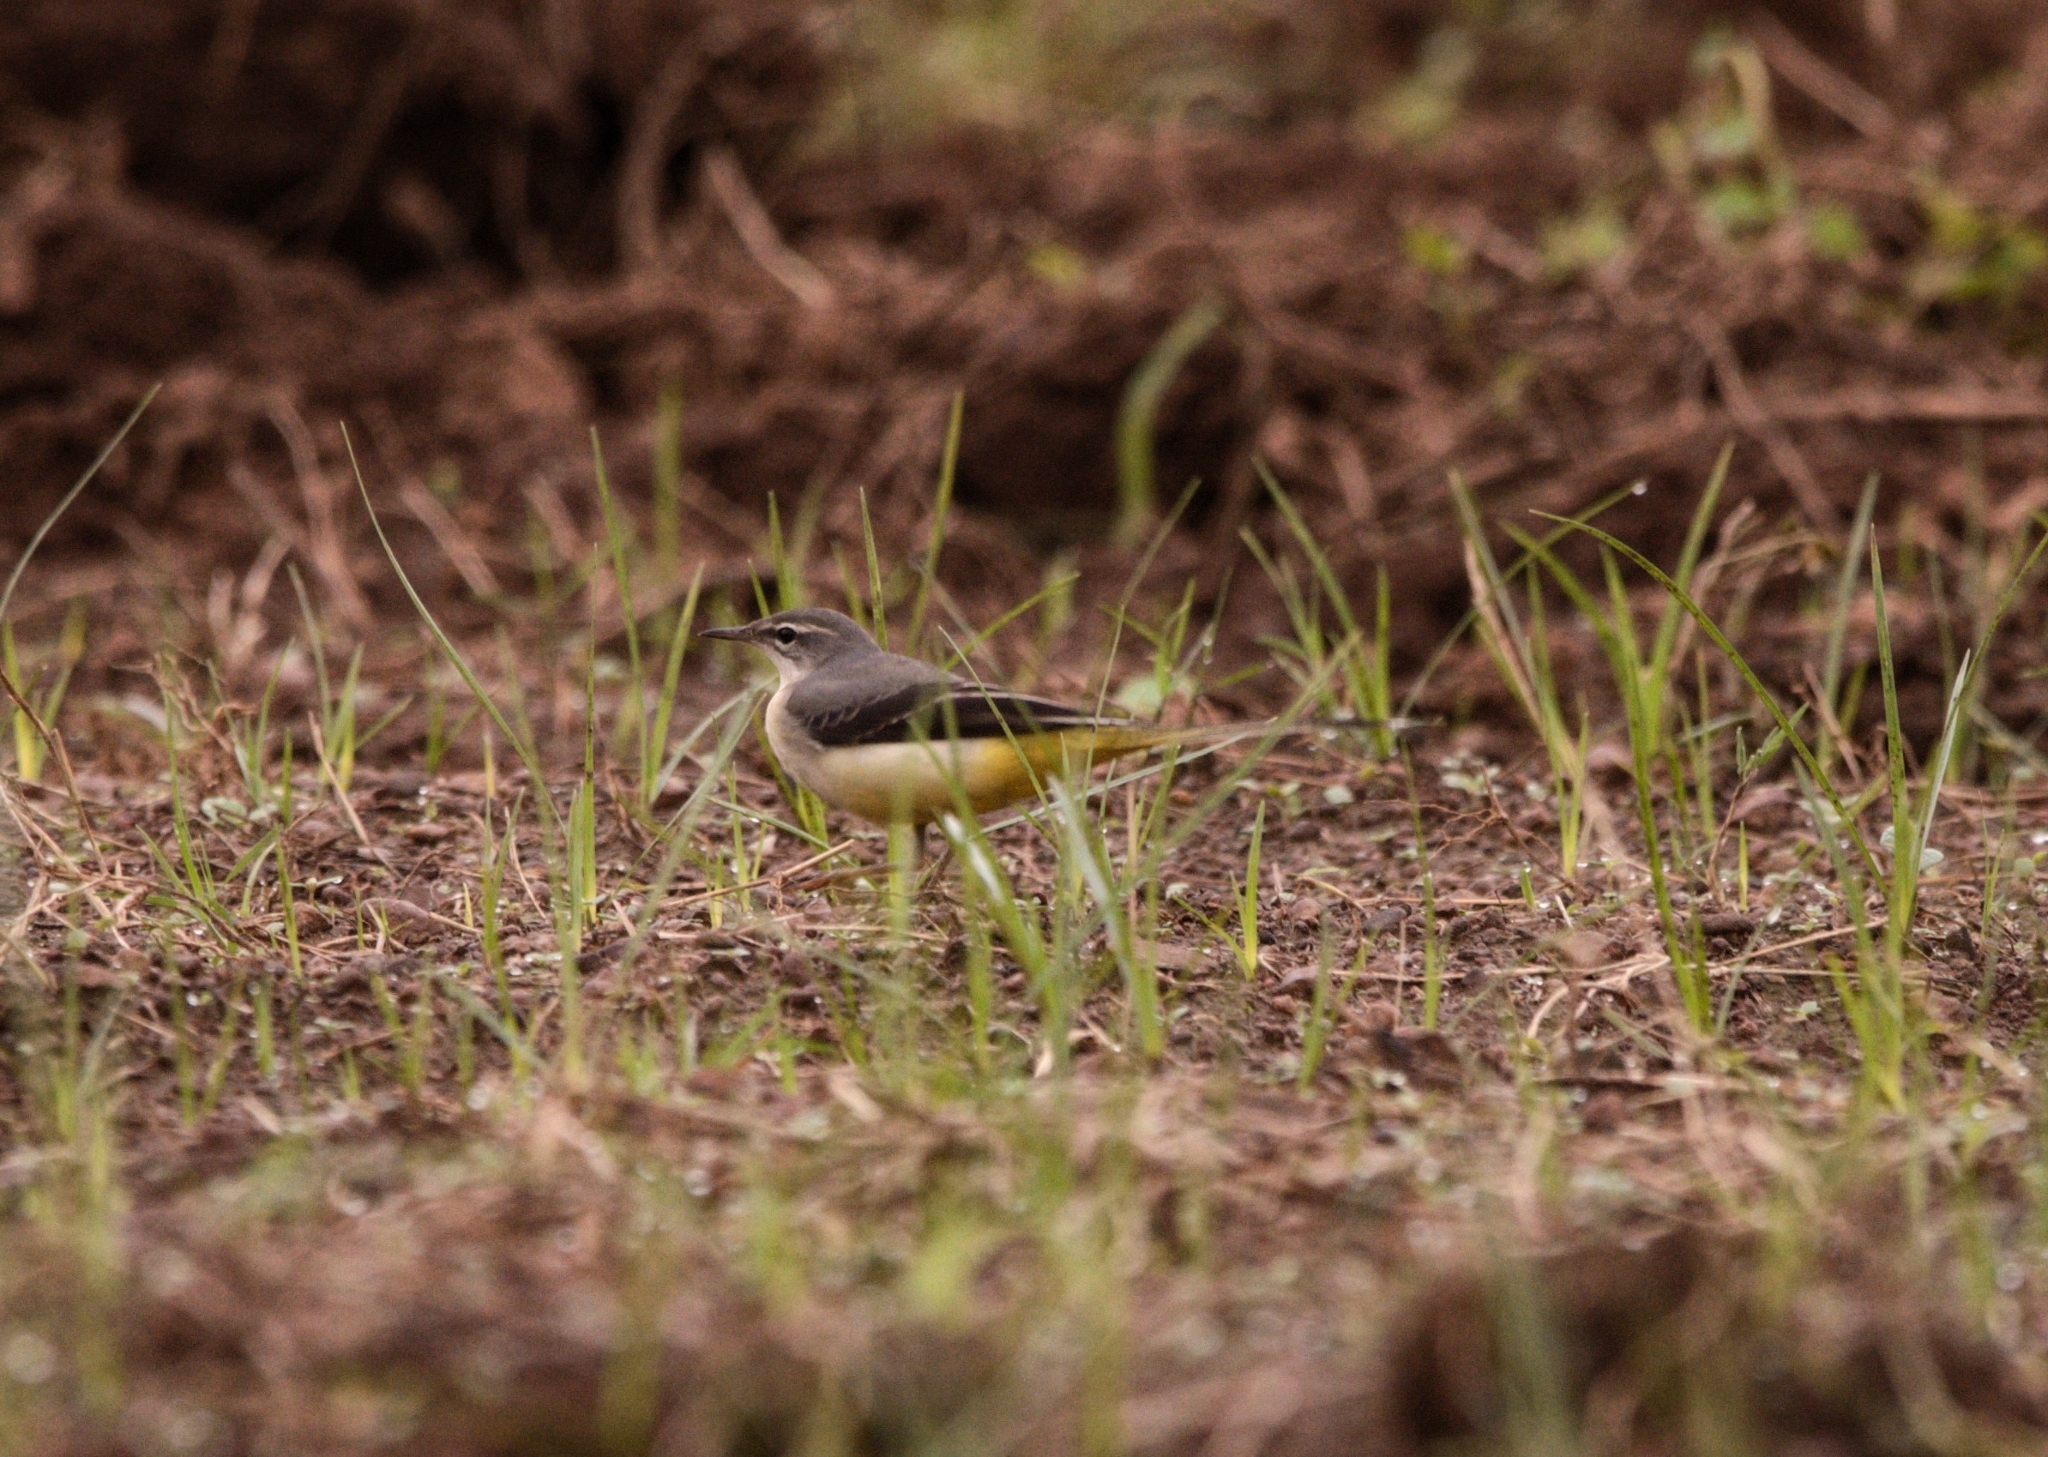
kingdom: Animalia
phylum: Chordata
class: Aves
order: Passeriformes
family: Motacillidae
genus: Motacilla
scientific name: Motacilla cinerea
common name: Grey wagtail
